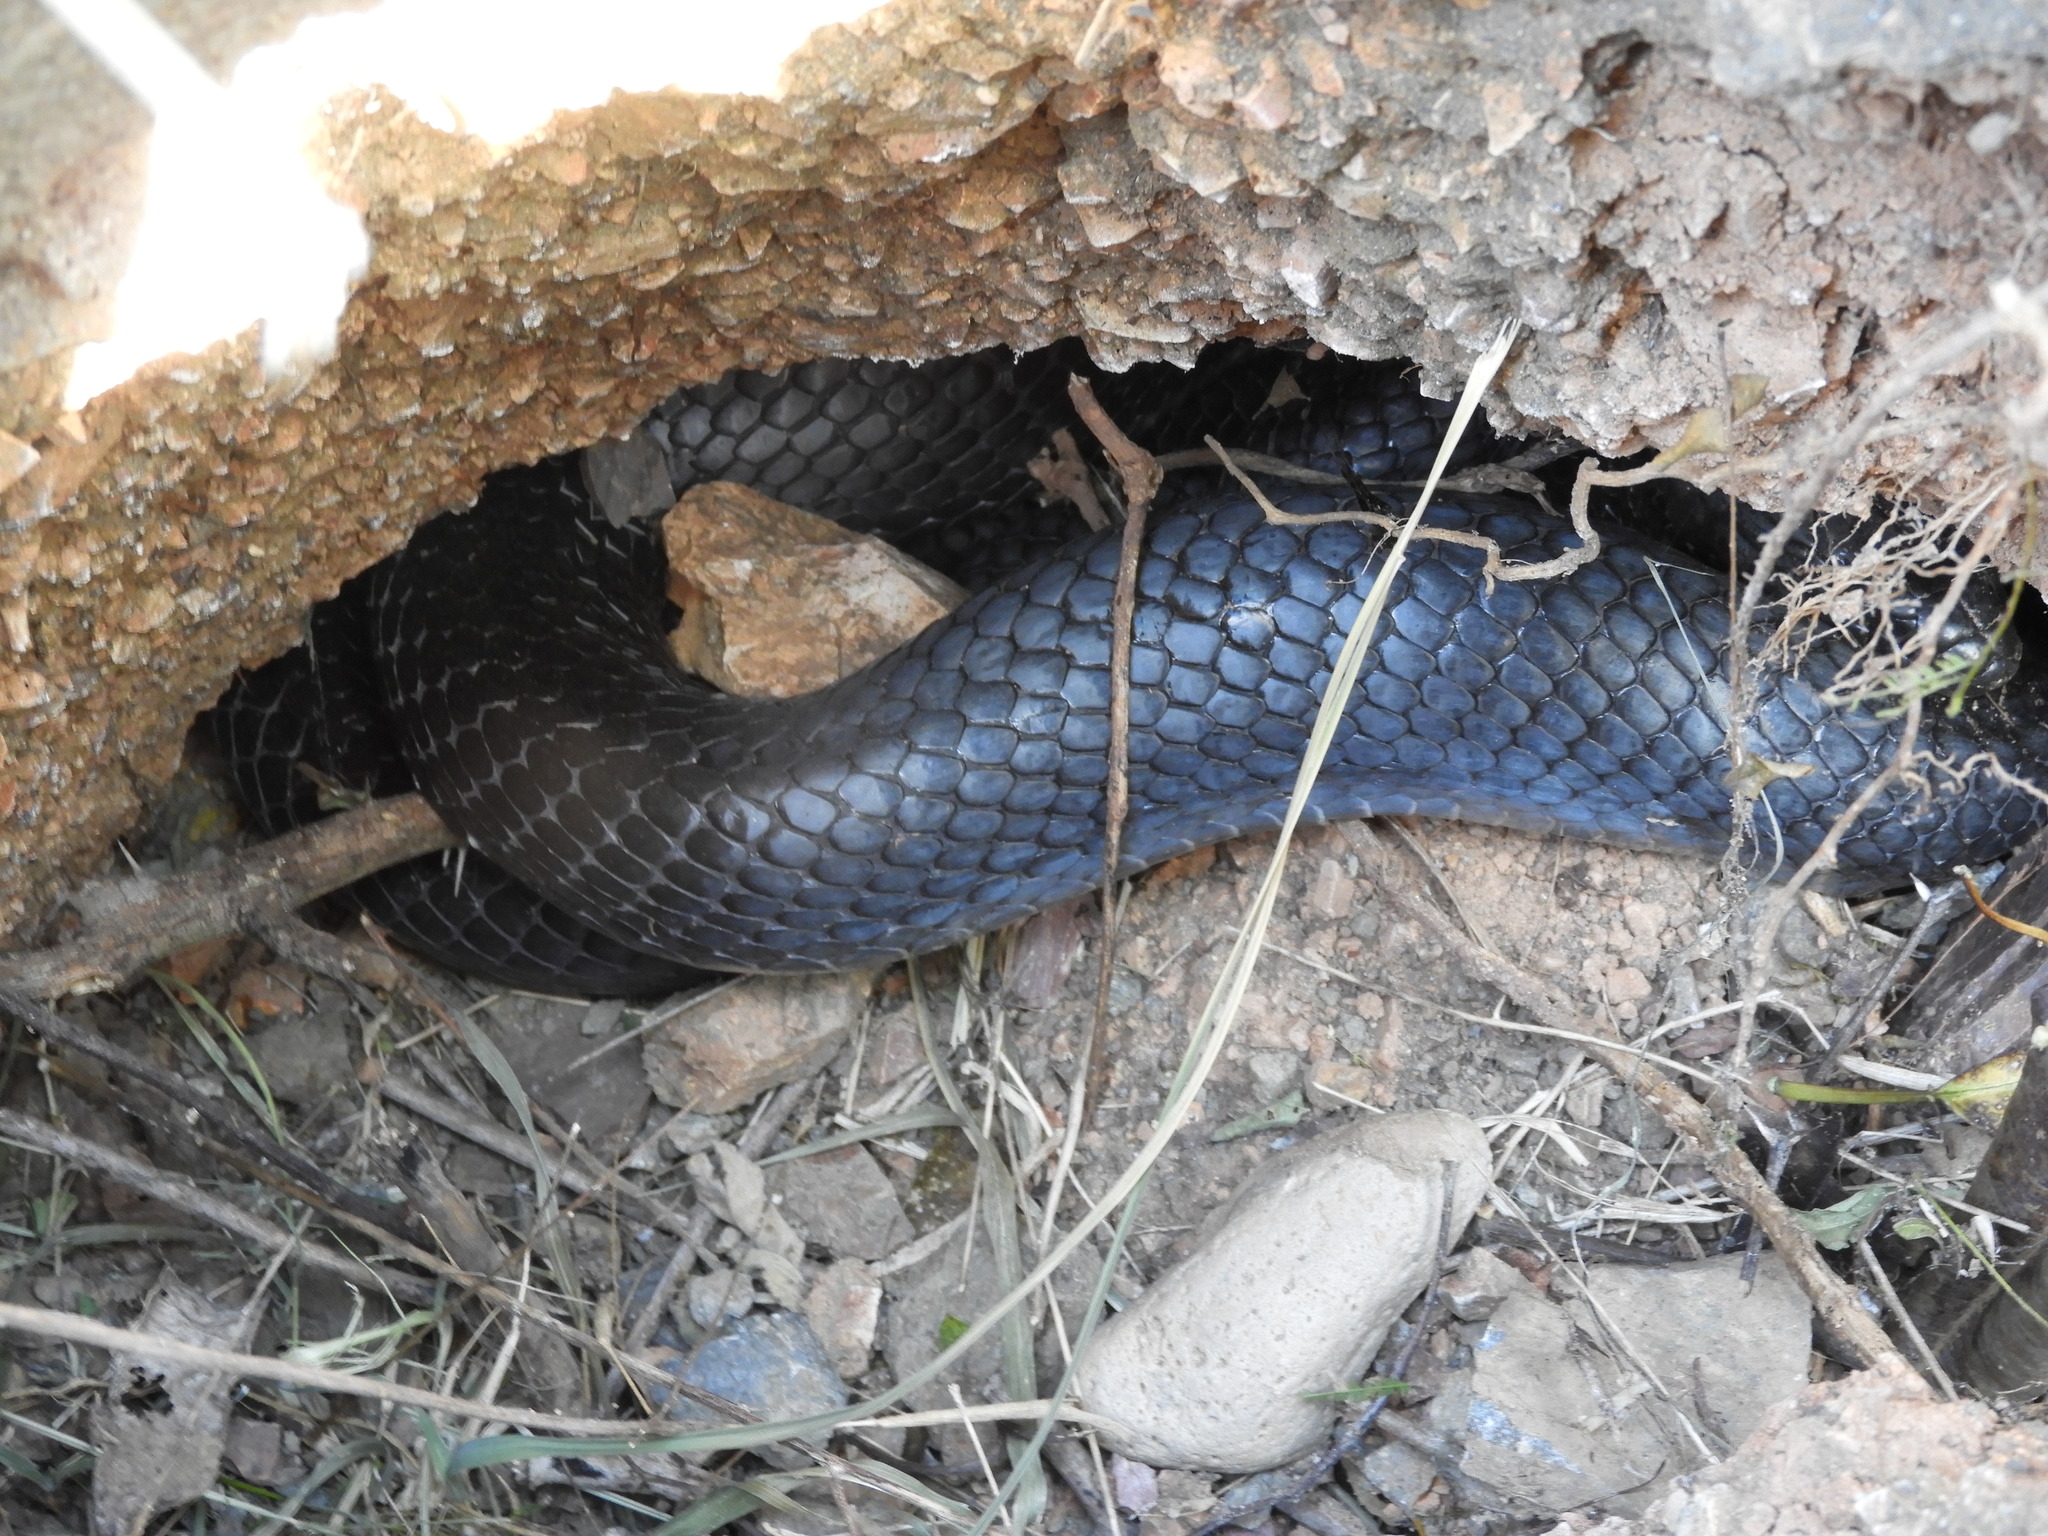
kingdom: Animalia
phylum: Chordata
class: Squamata
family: Colubridae
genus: Drymarchon
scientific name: Drymarchon melanurus
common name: Central american indigo snake
